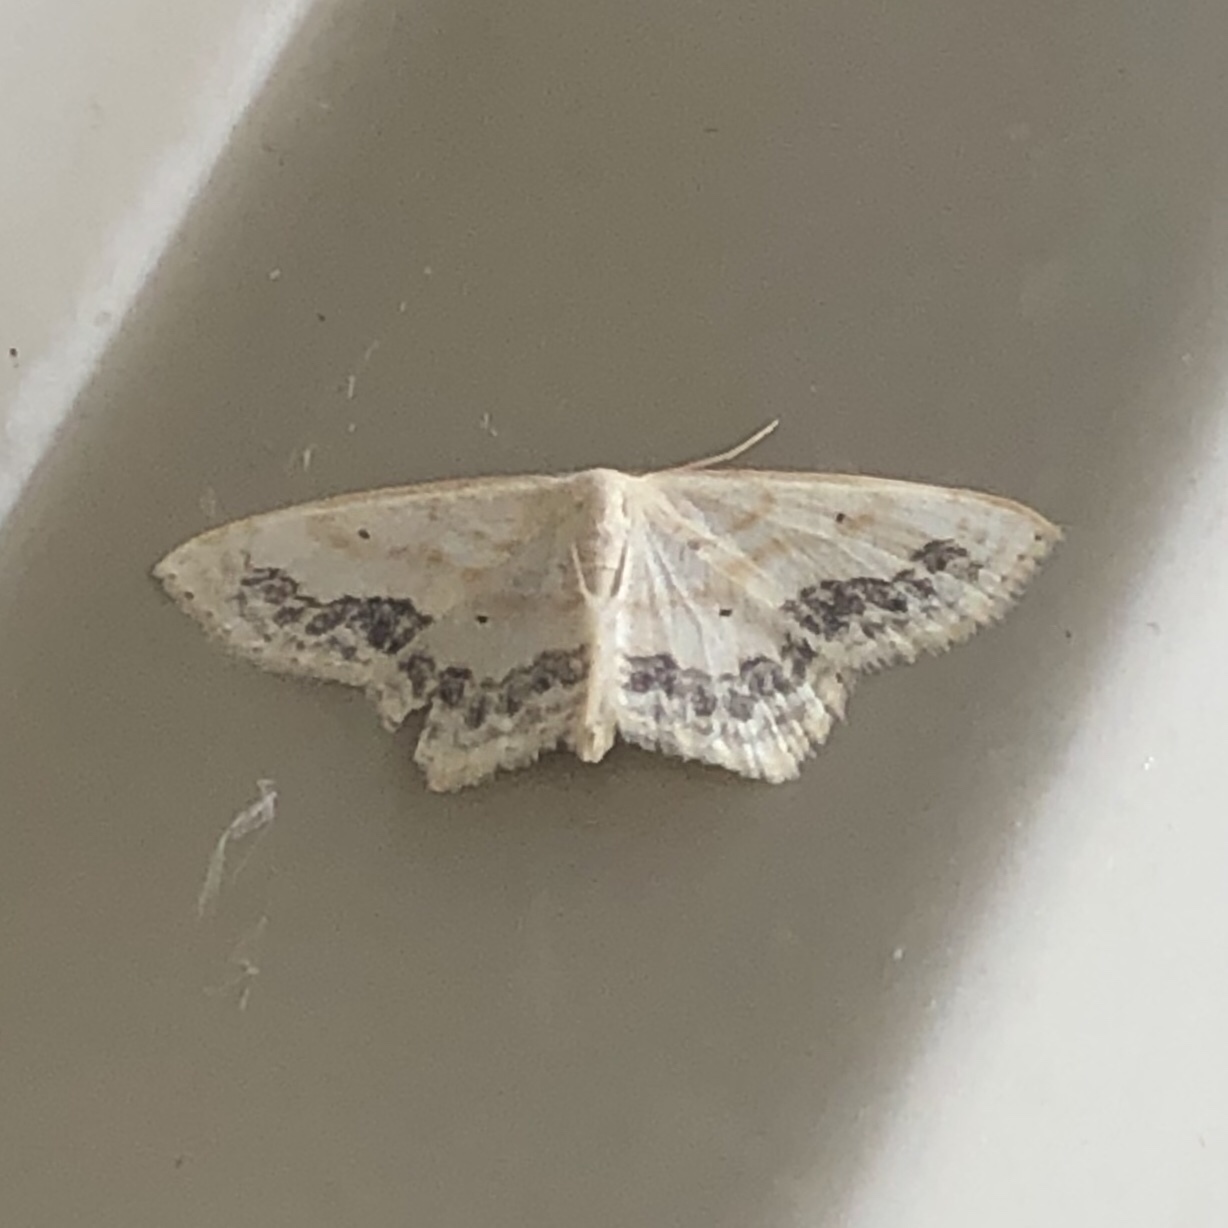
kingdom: Animalia
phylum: Arthropoda
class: Insecta
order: Lepidoptera
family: Geometridae
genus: Scopula
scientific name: Scopula limboundata
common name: Large lace border
